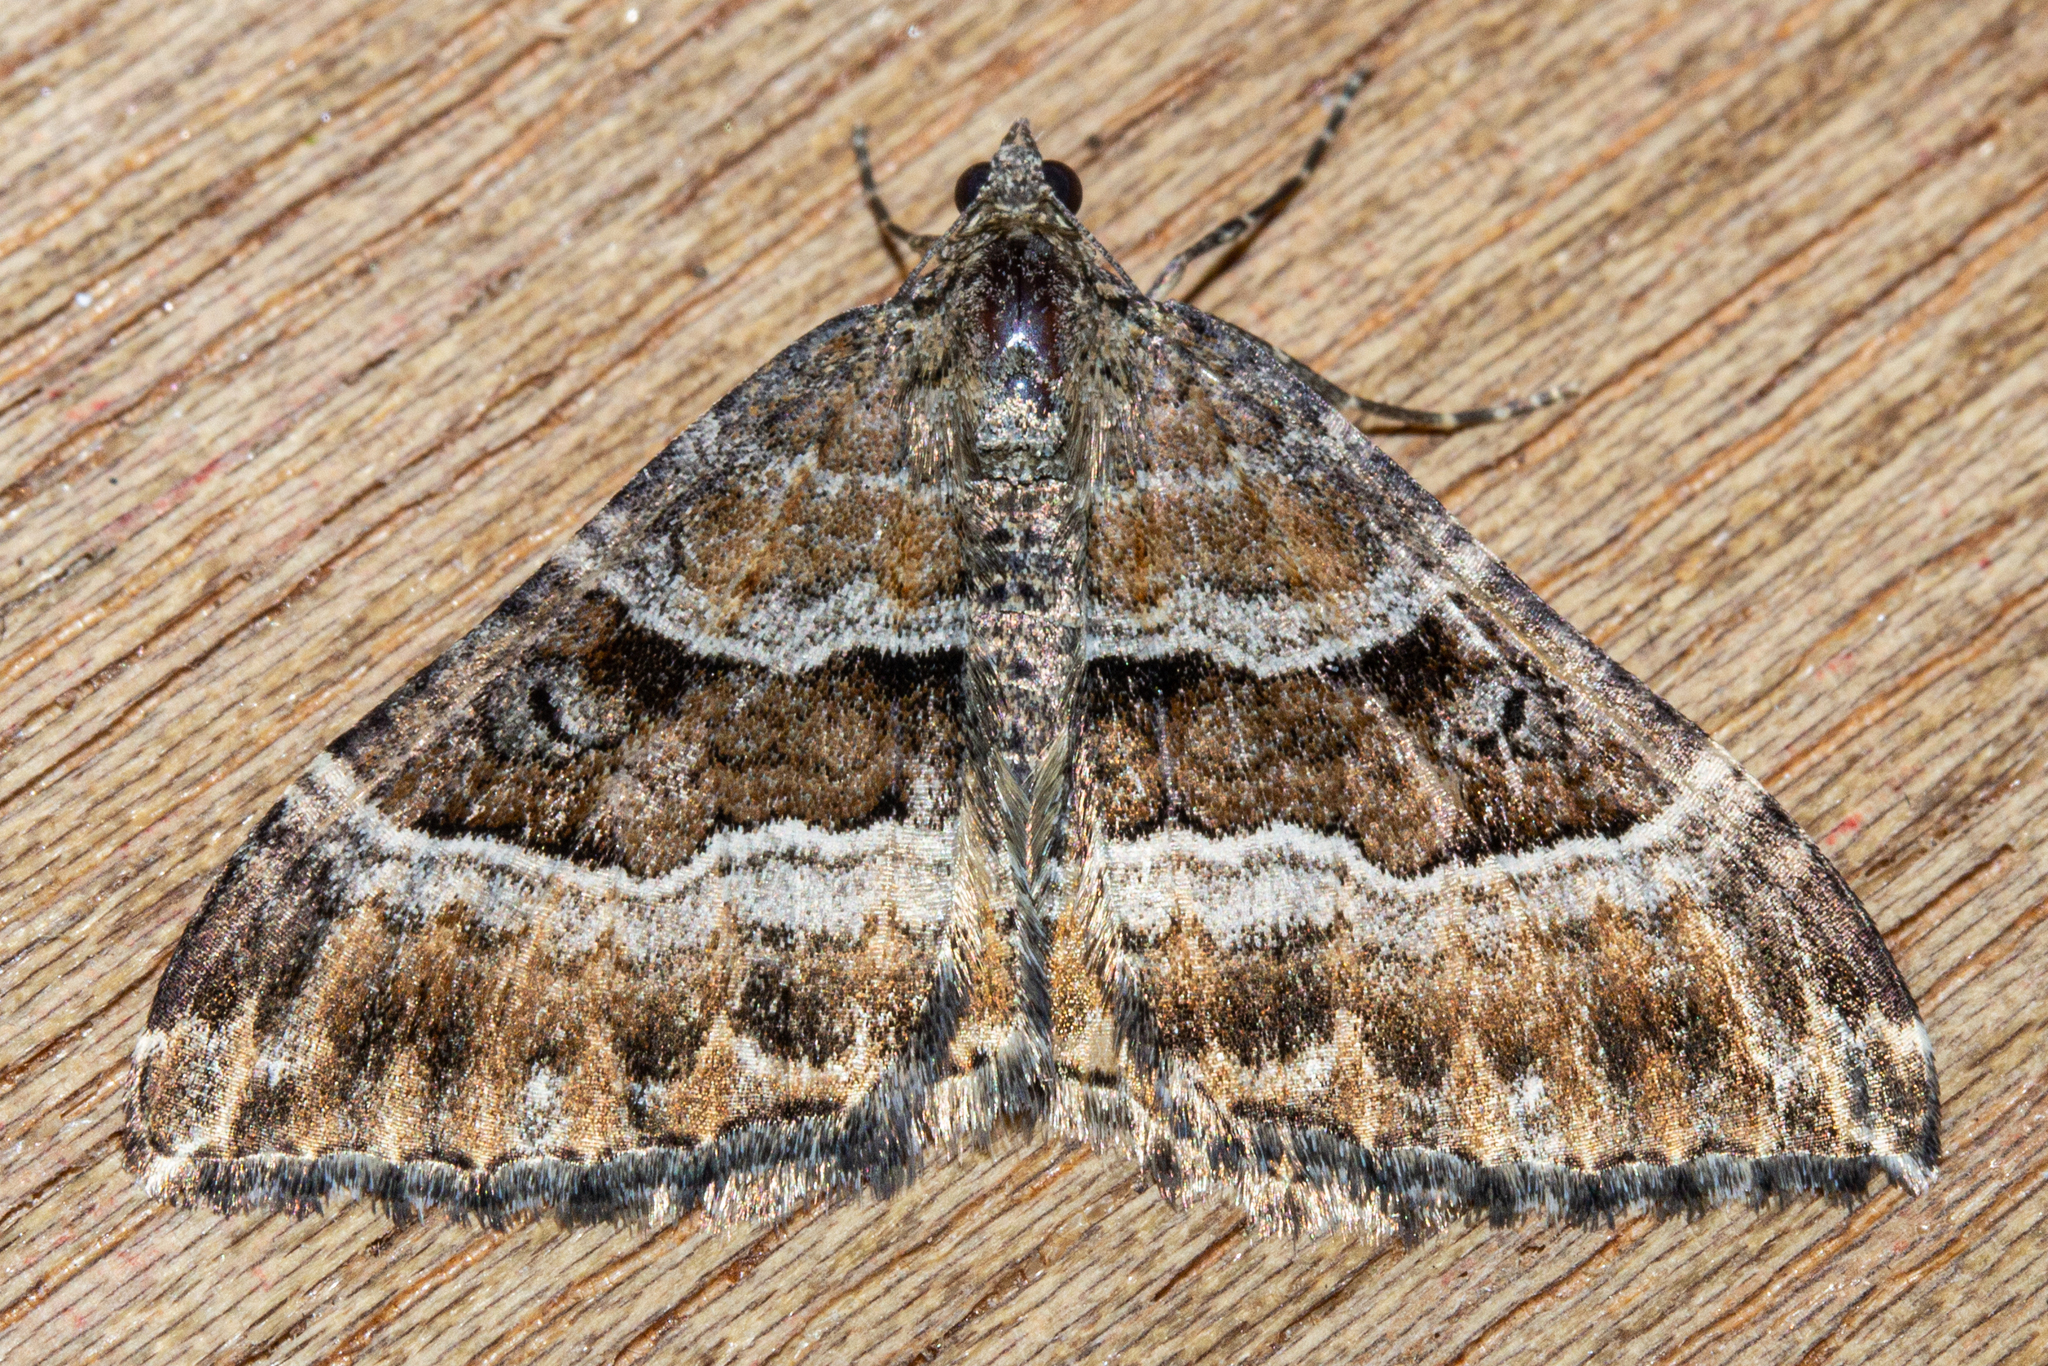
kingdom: Animalia
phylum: Arthropoda
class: Insecta
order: Lepidoptera
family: Geometridae
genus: Hydriomena
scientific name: Hydriomena deltoidata
